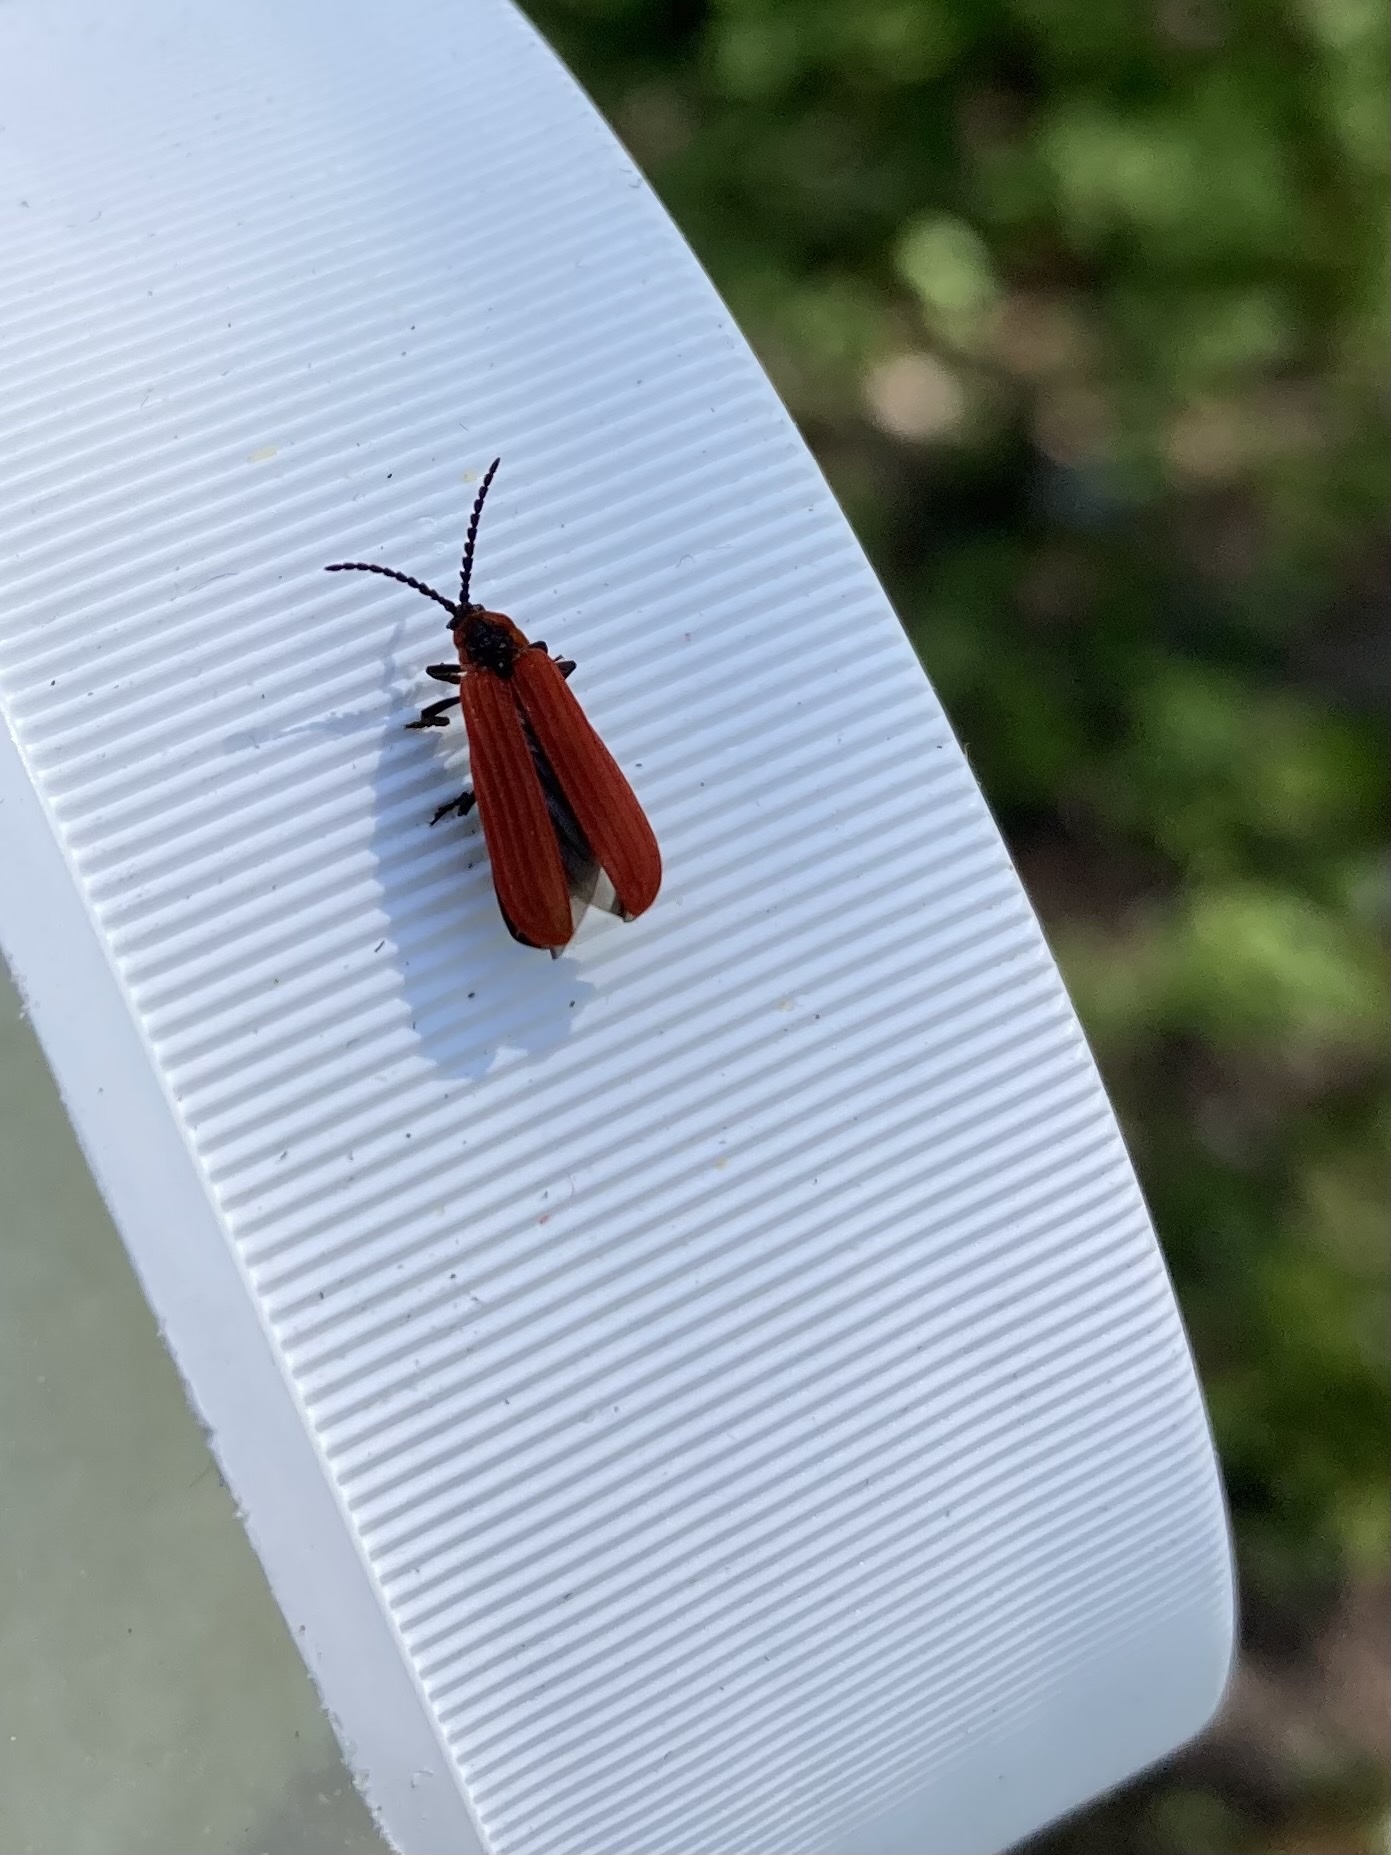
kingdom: Animalia
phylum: Arthropoda
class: Insecta
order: Coleoptera
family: Lycidae
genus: Dictyoptera
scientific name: Dictyoptera aurora
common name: Golden net-winged beetle
